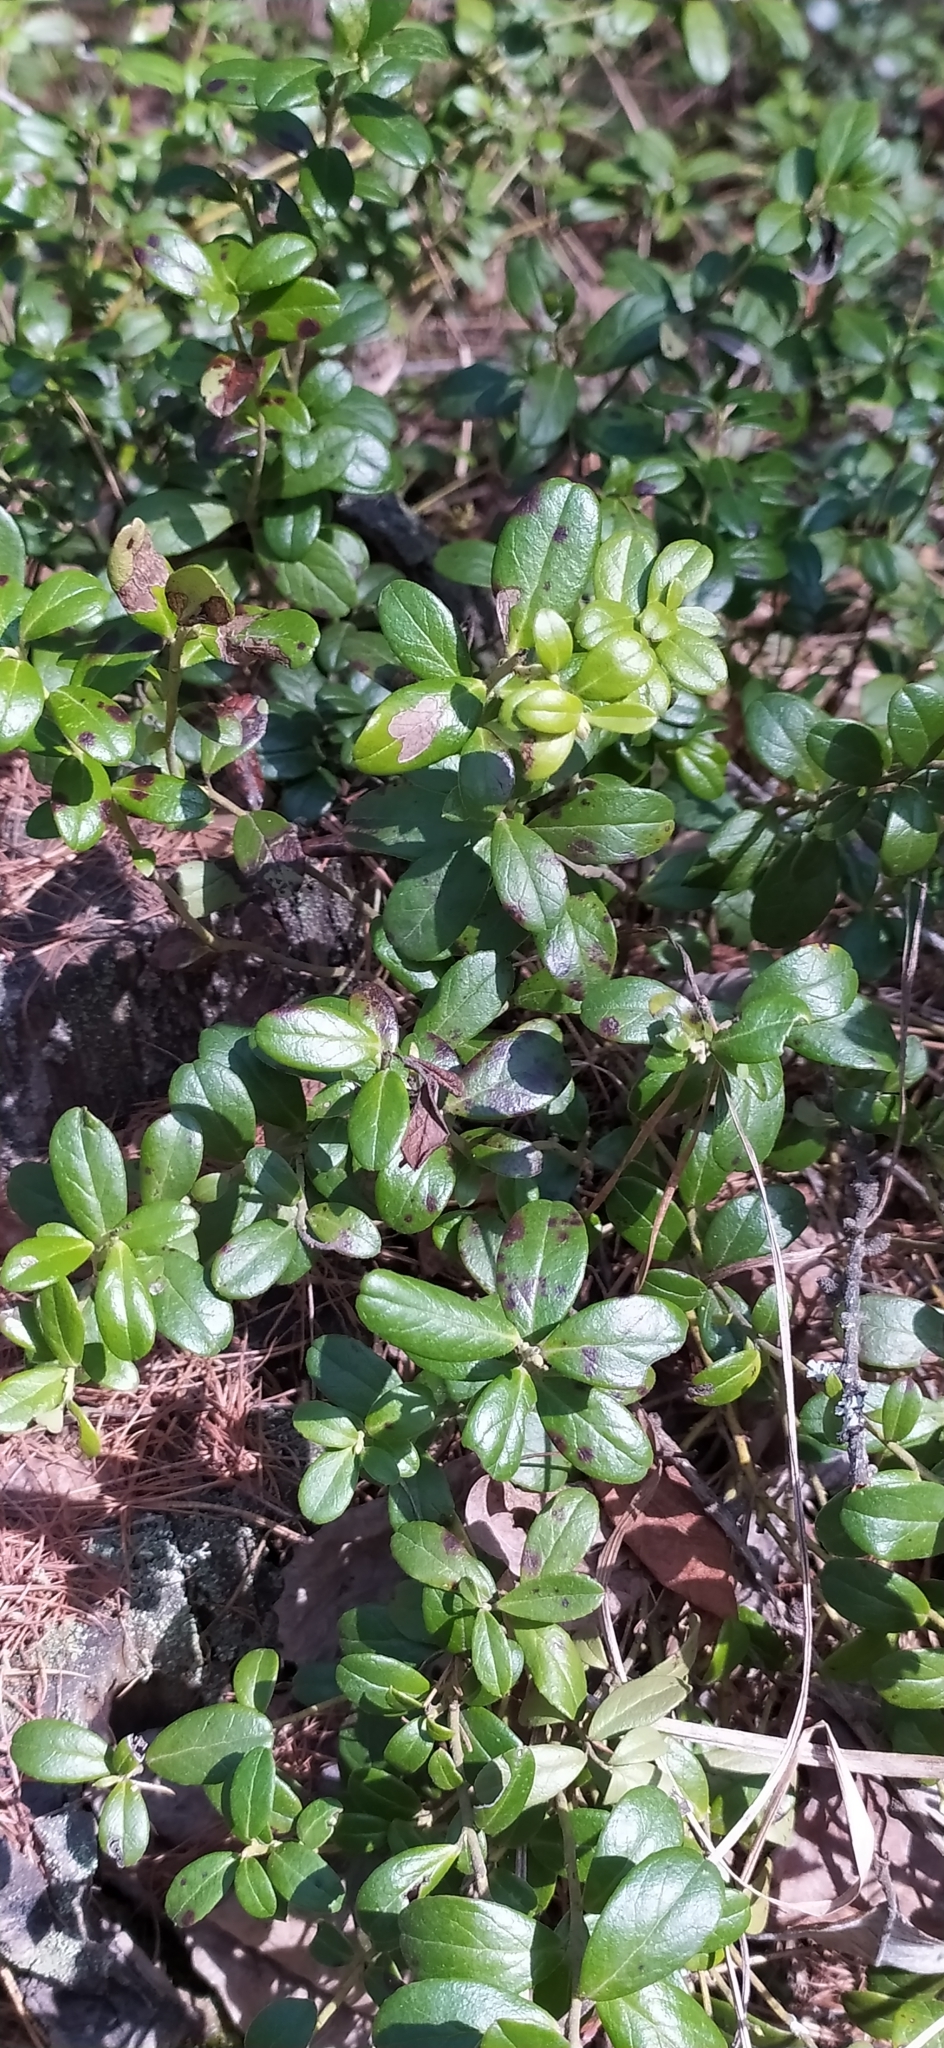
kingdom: Plantae
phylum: Tracheophyta
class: Magnoliopsida
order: Ericales
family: Ericaceae
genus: Vaccinium
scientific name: Vaccinium vitis-idaea
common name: Cowberry
